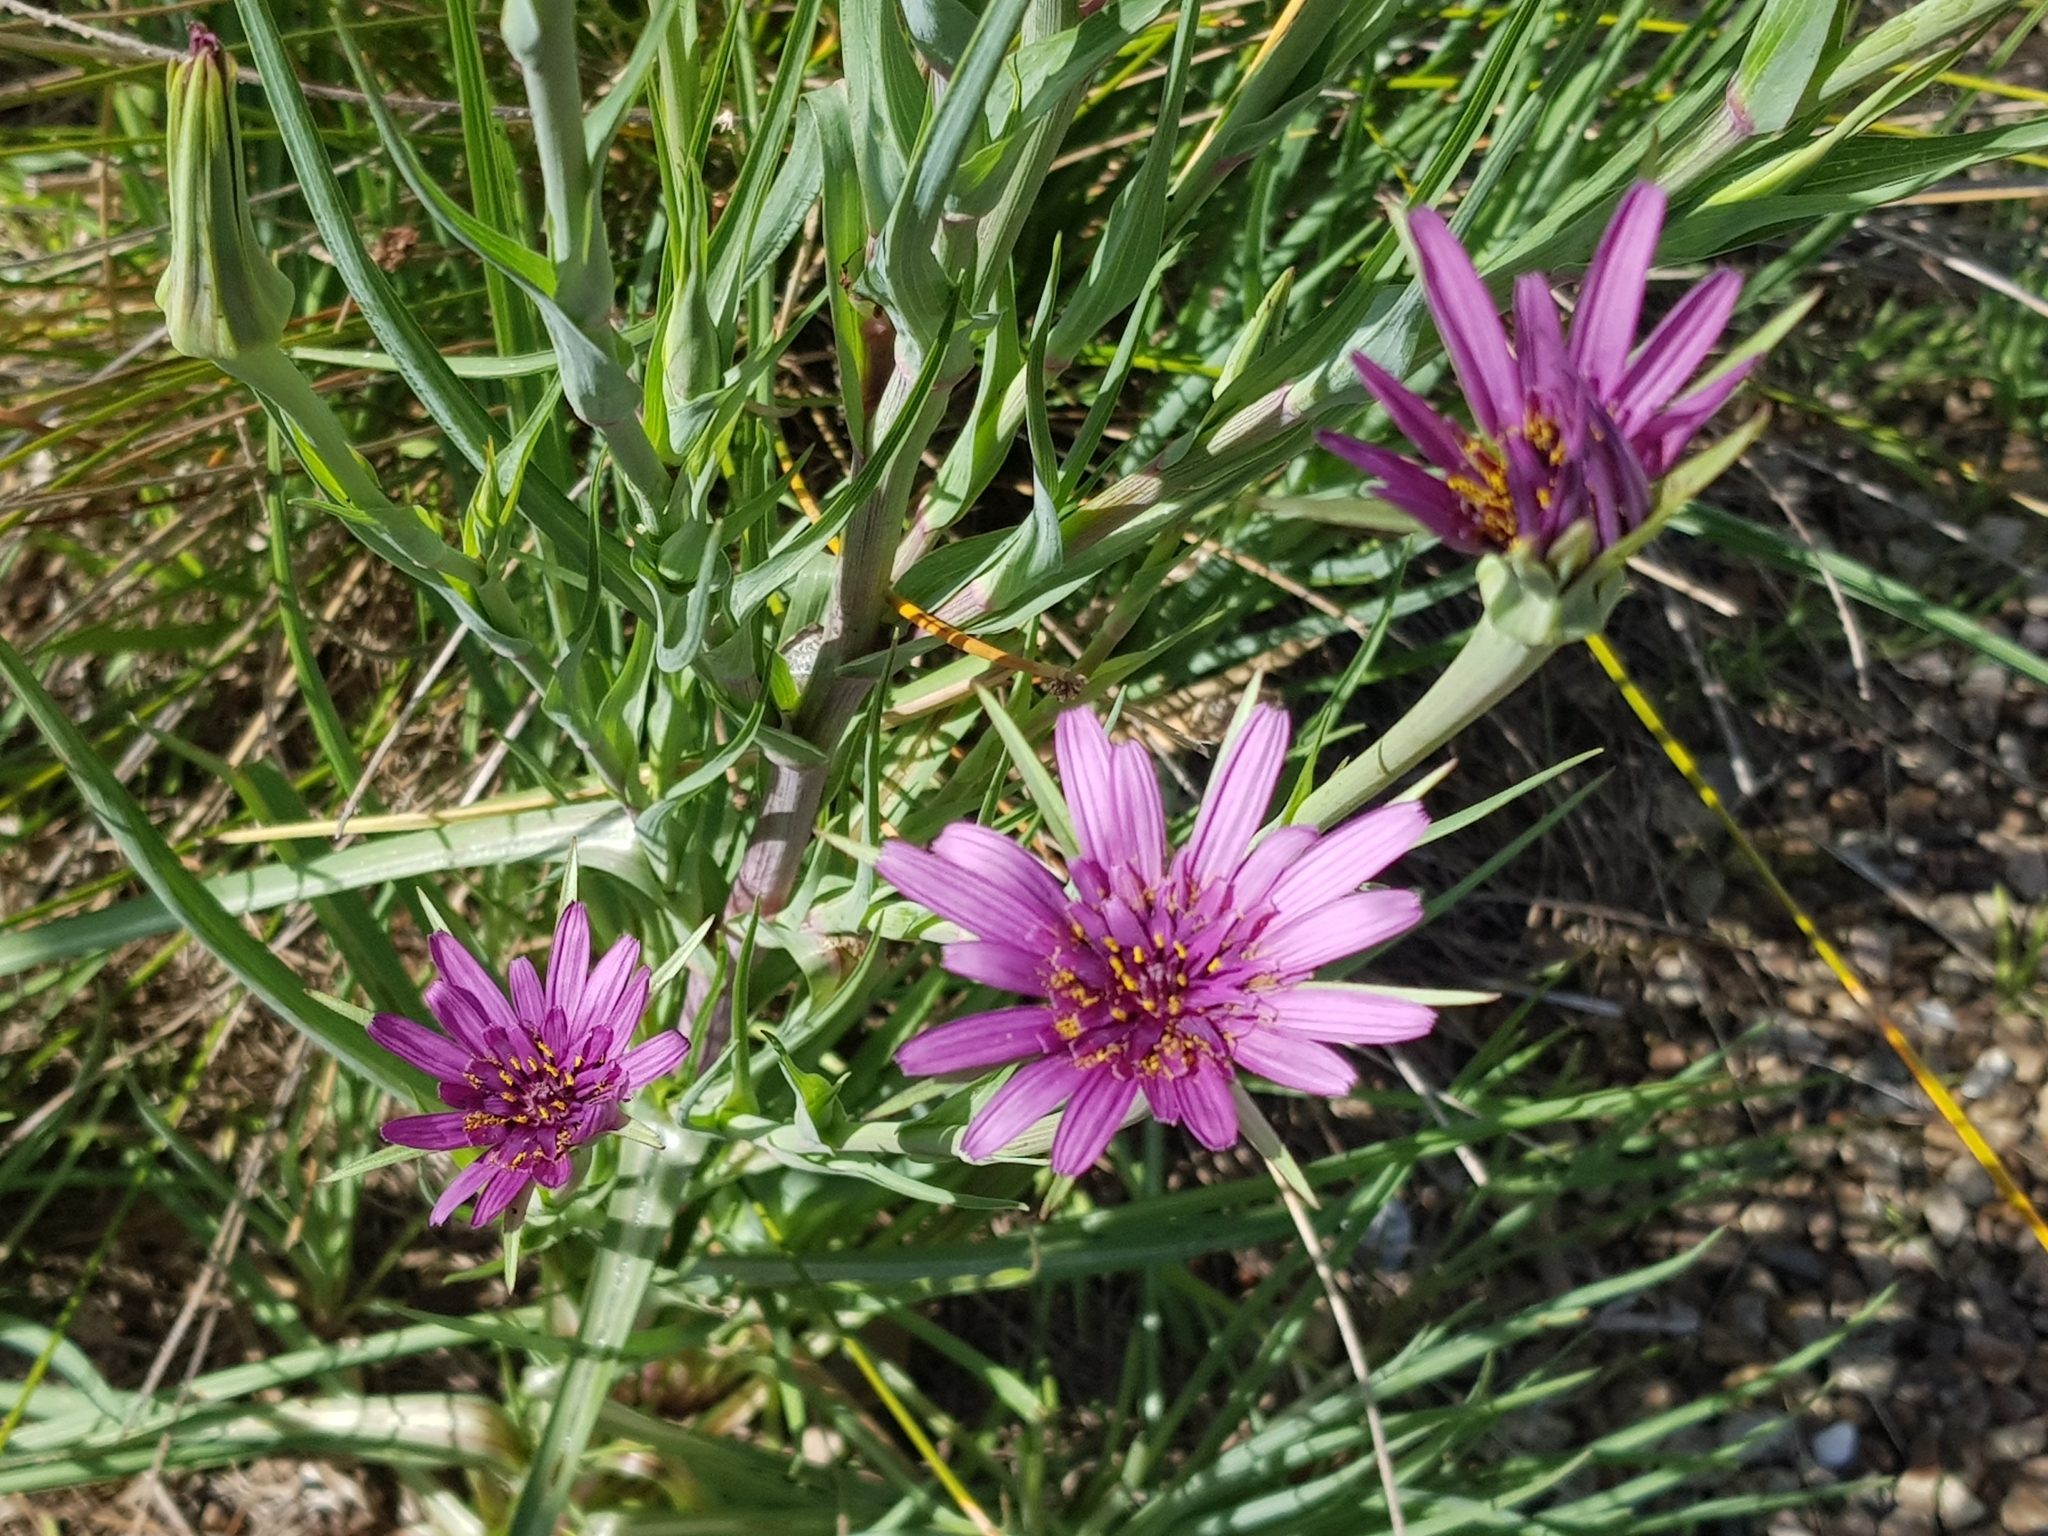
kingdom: Plantae
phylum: Tracheophyta
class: Magnoliopsida
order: Asterales
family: Asteraceae
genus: Tragopogon
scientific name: Tragopogon porrifolius
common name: Salsify
